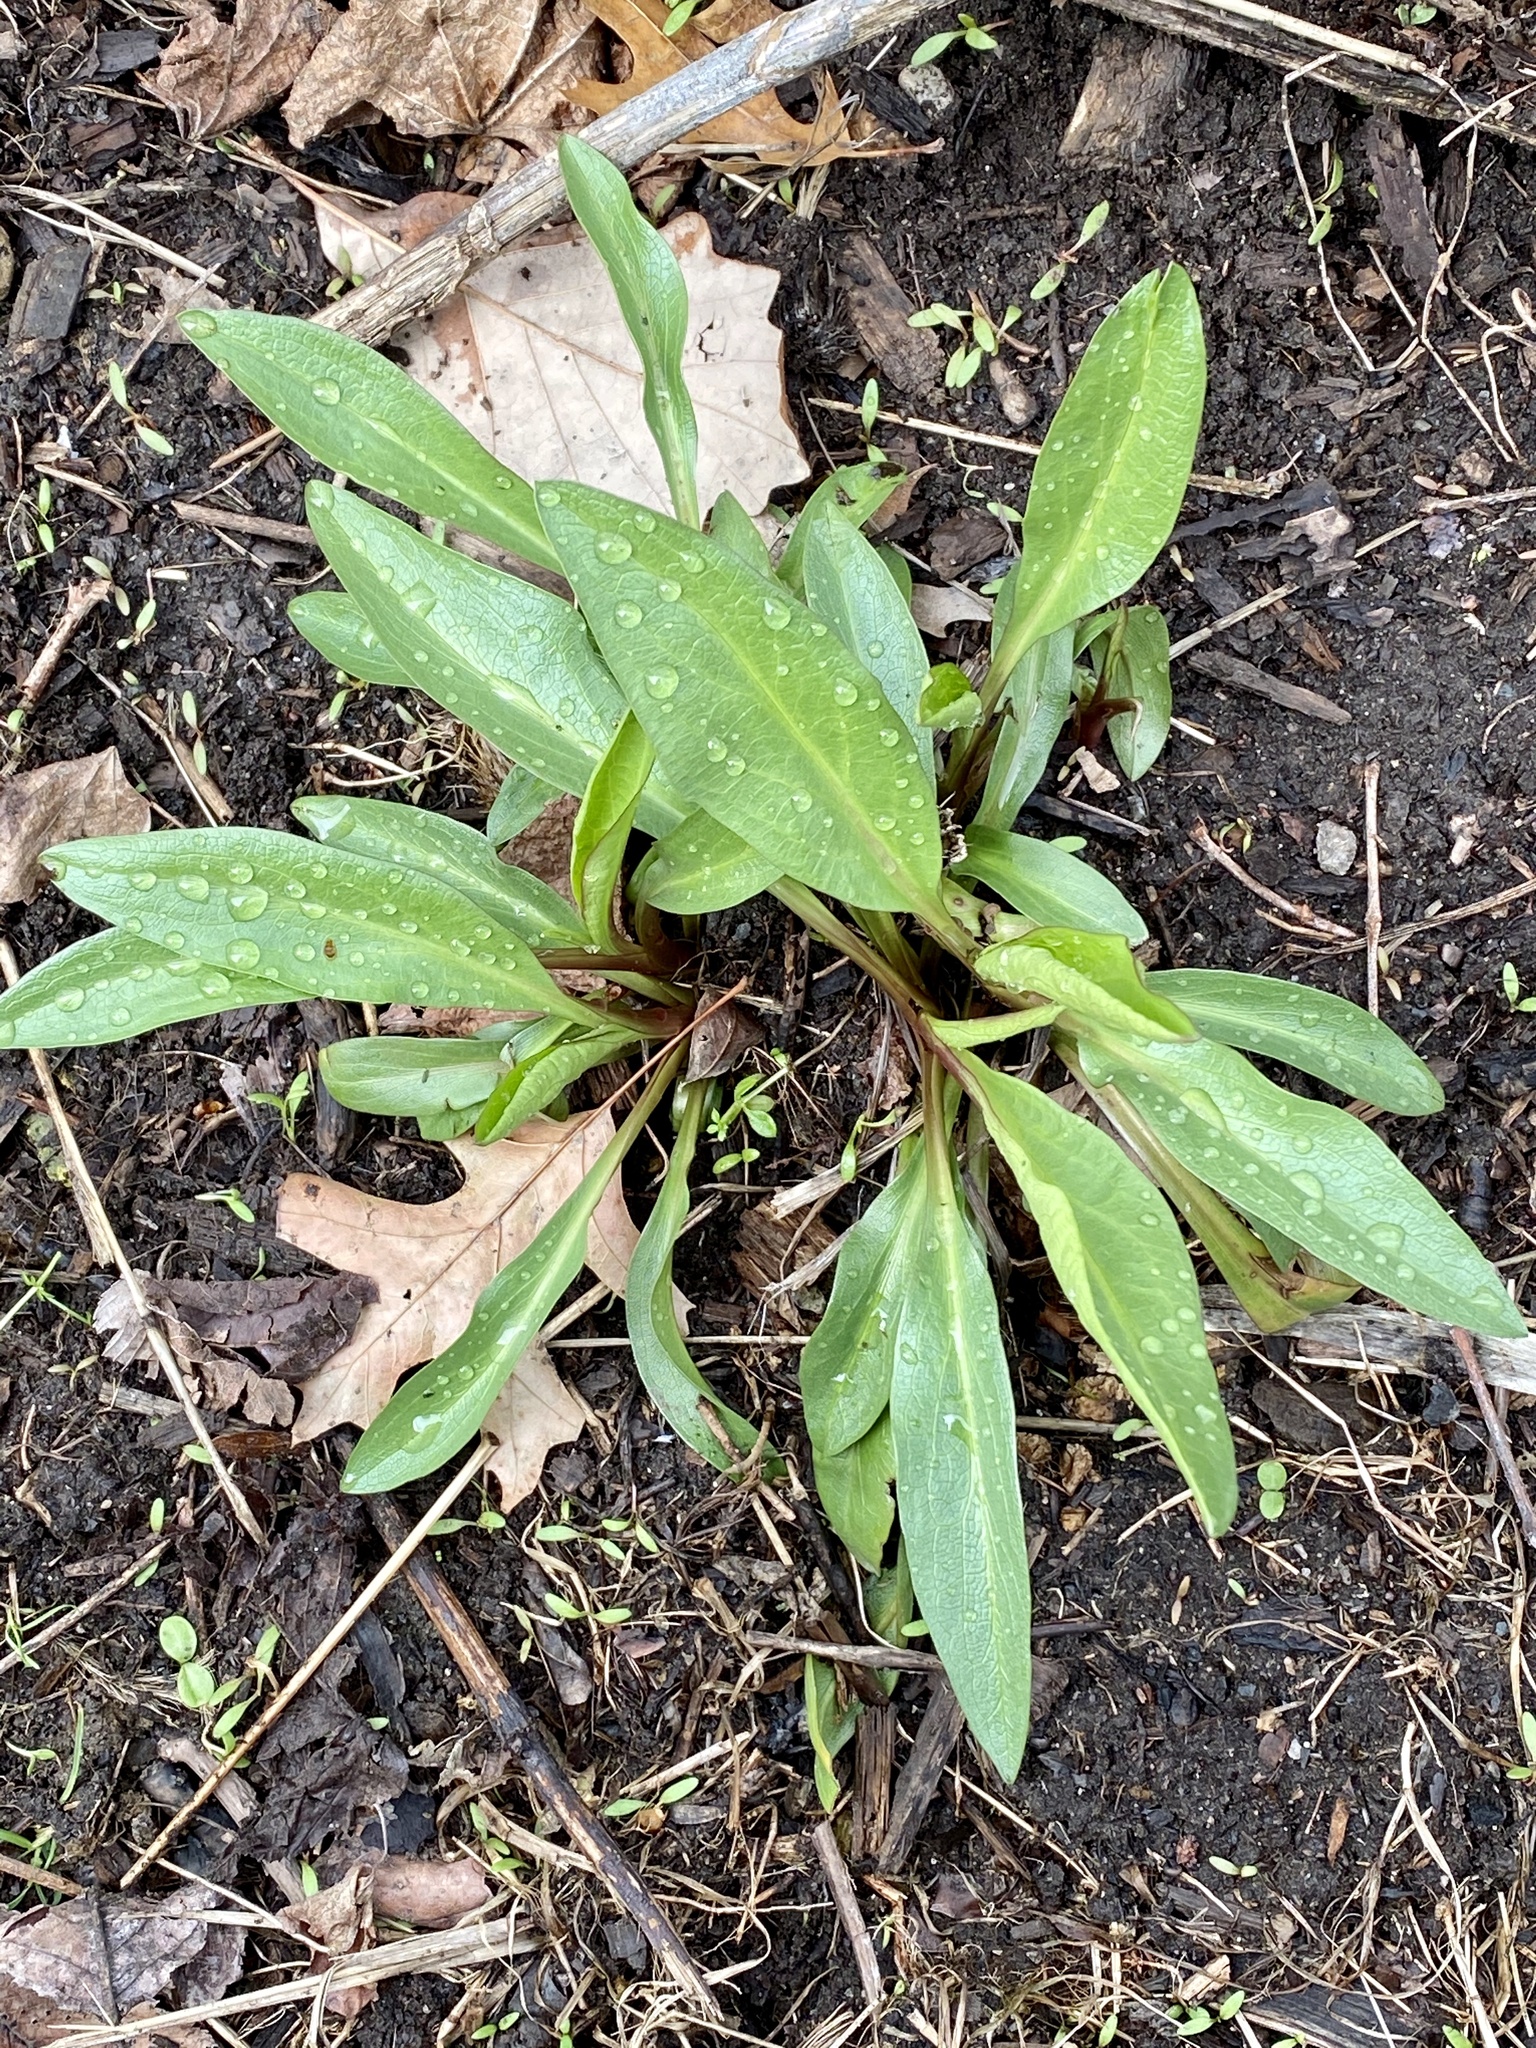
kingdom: Plantae
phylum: Tracheophyta
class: Magnoliopsida
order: Asterales
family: Asteraceae
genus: Solidago
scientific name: Solidago sempervirens
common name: Salt-marsh goldenrod
